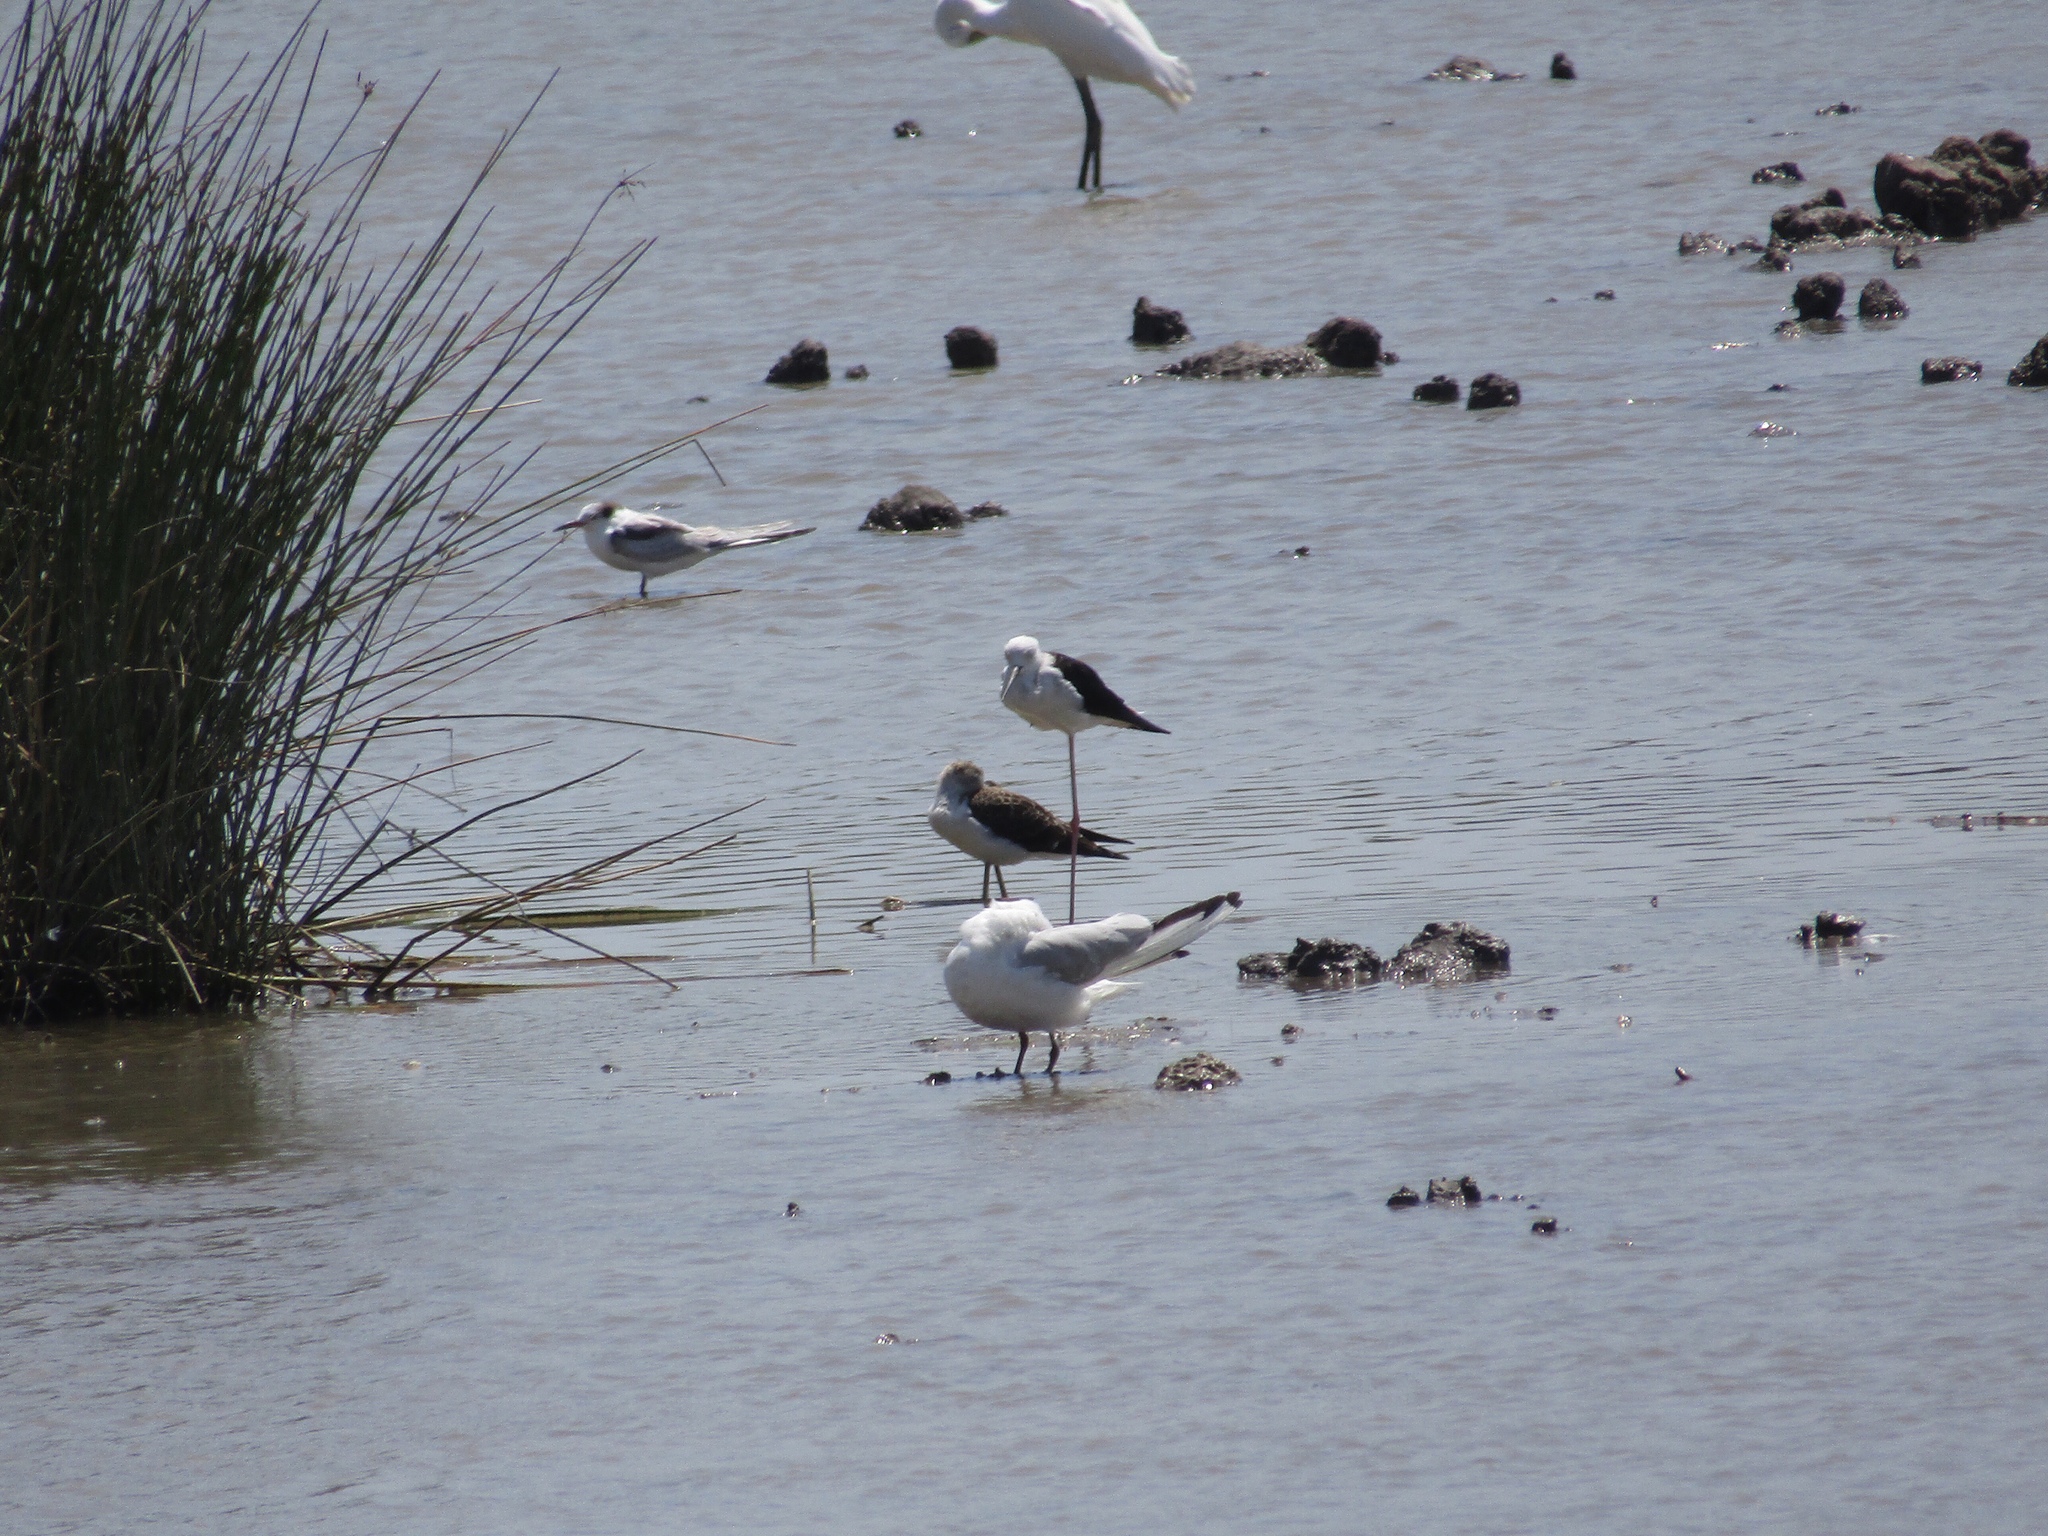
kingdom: Animalia
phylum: Chordata
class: Aves
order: Charadriiformes
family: Recurvirostridae
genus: Himantopus
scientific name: Himantopus himantopus
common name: Black-winged stilt
